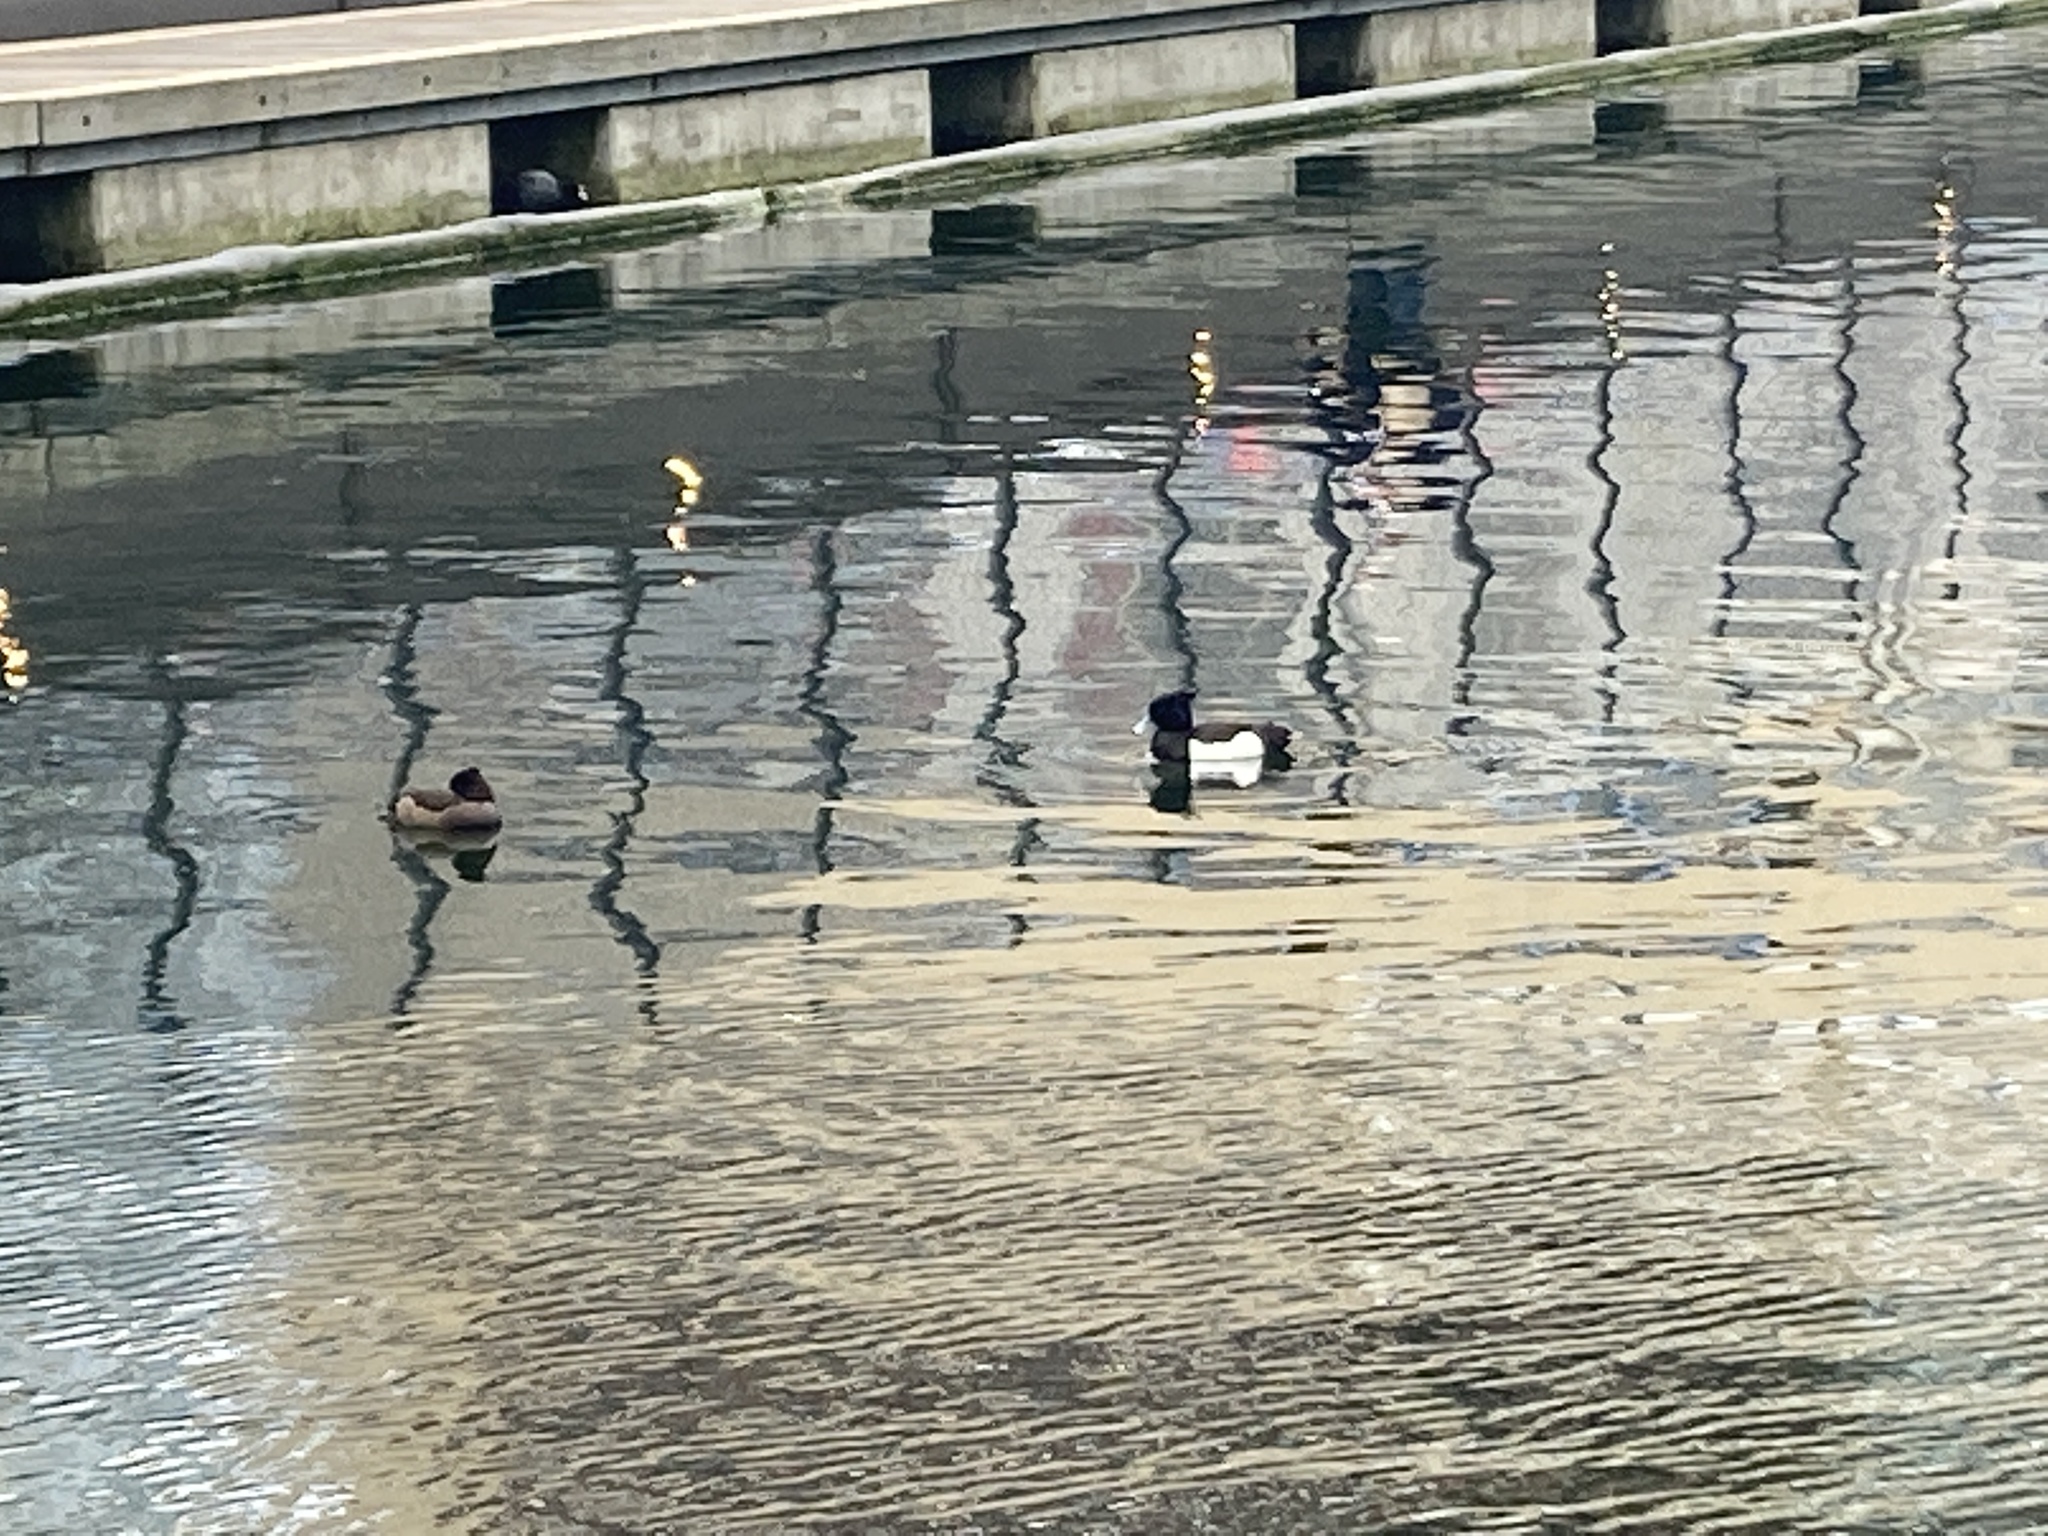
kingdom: Animalia
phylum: Chordata
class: Aves
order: Anseriformes
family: Anatidae
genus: Aythya
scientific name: Aythya fuligula
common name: Tufted duck
